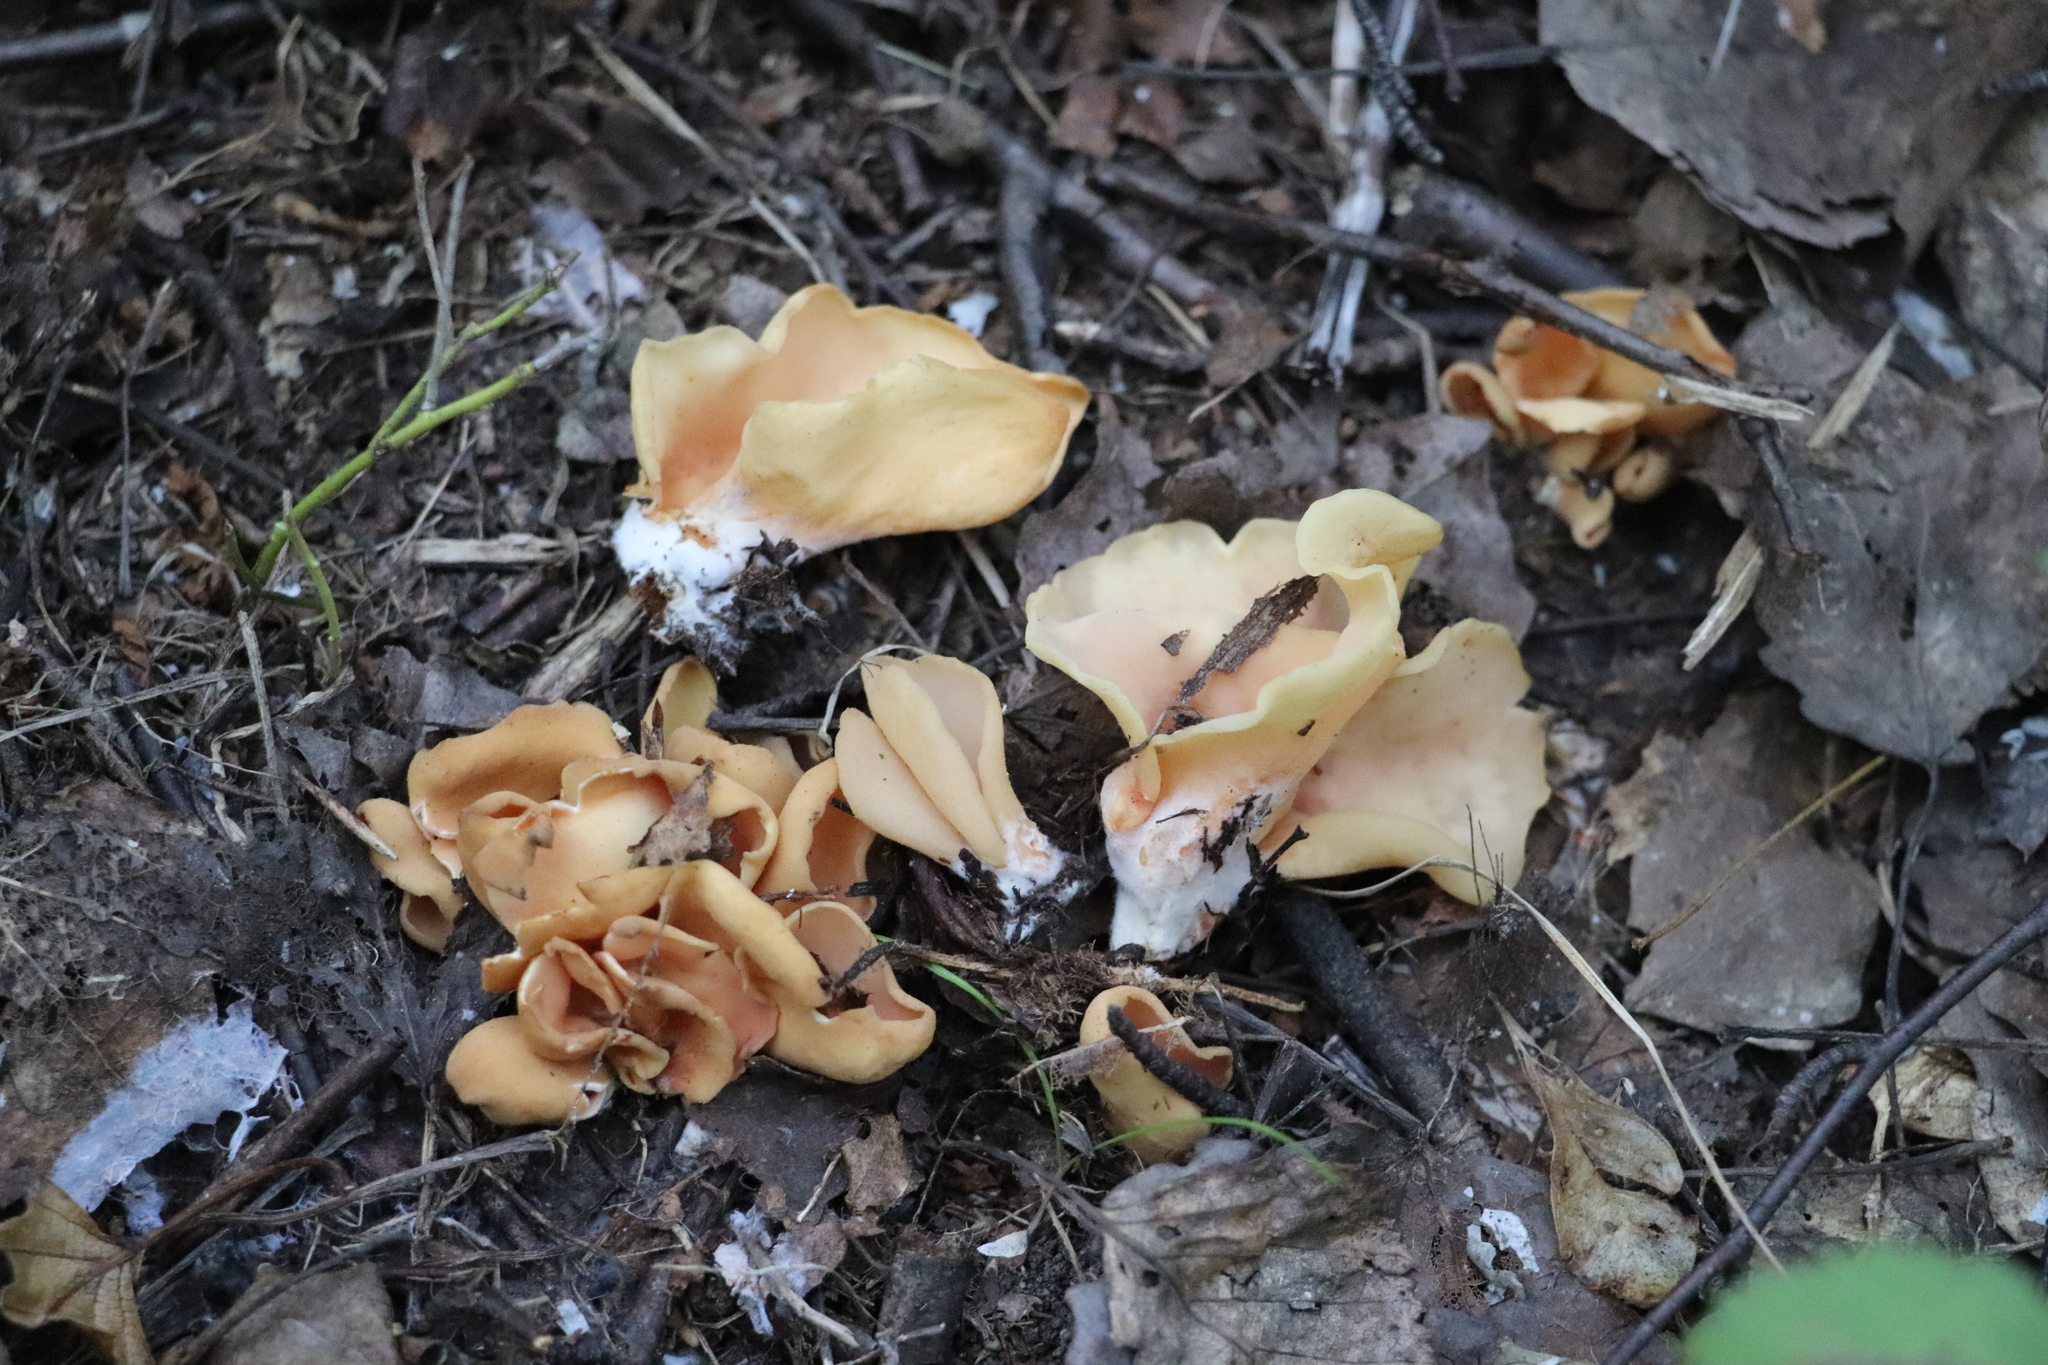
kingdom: Fungi
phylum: Ascomycota
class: Pezizomycetes
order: Pezizales
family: Otideaceae
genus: Otidea
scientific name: Otidea onotica
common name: Hare's ear
